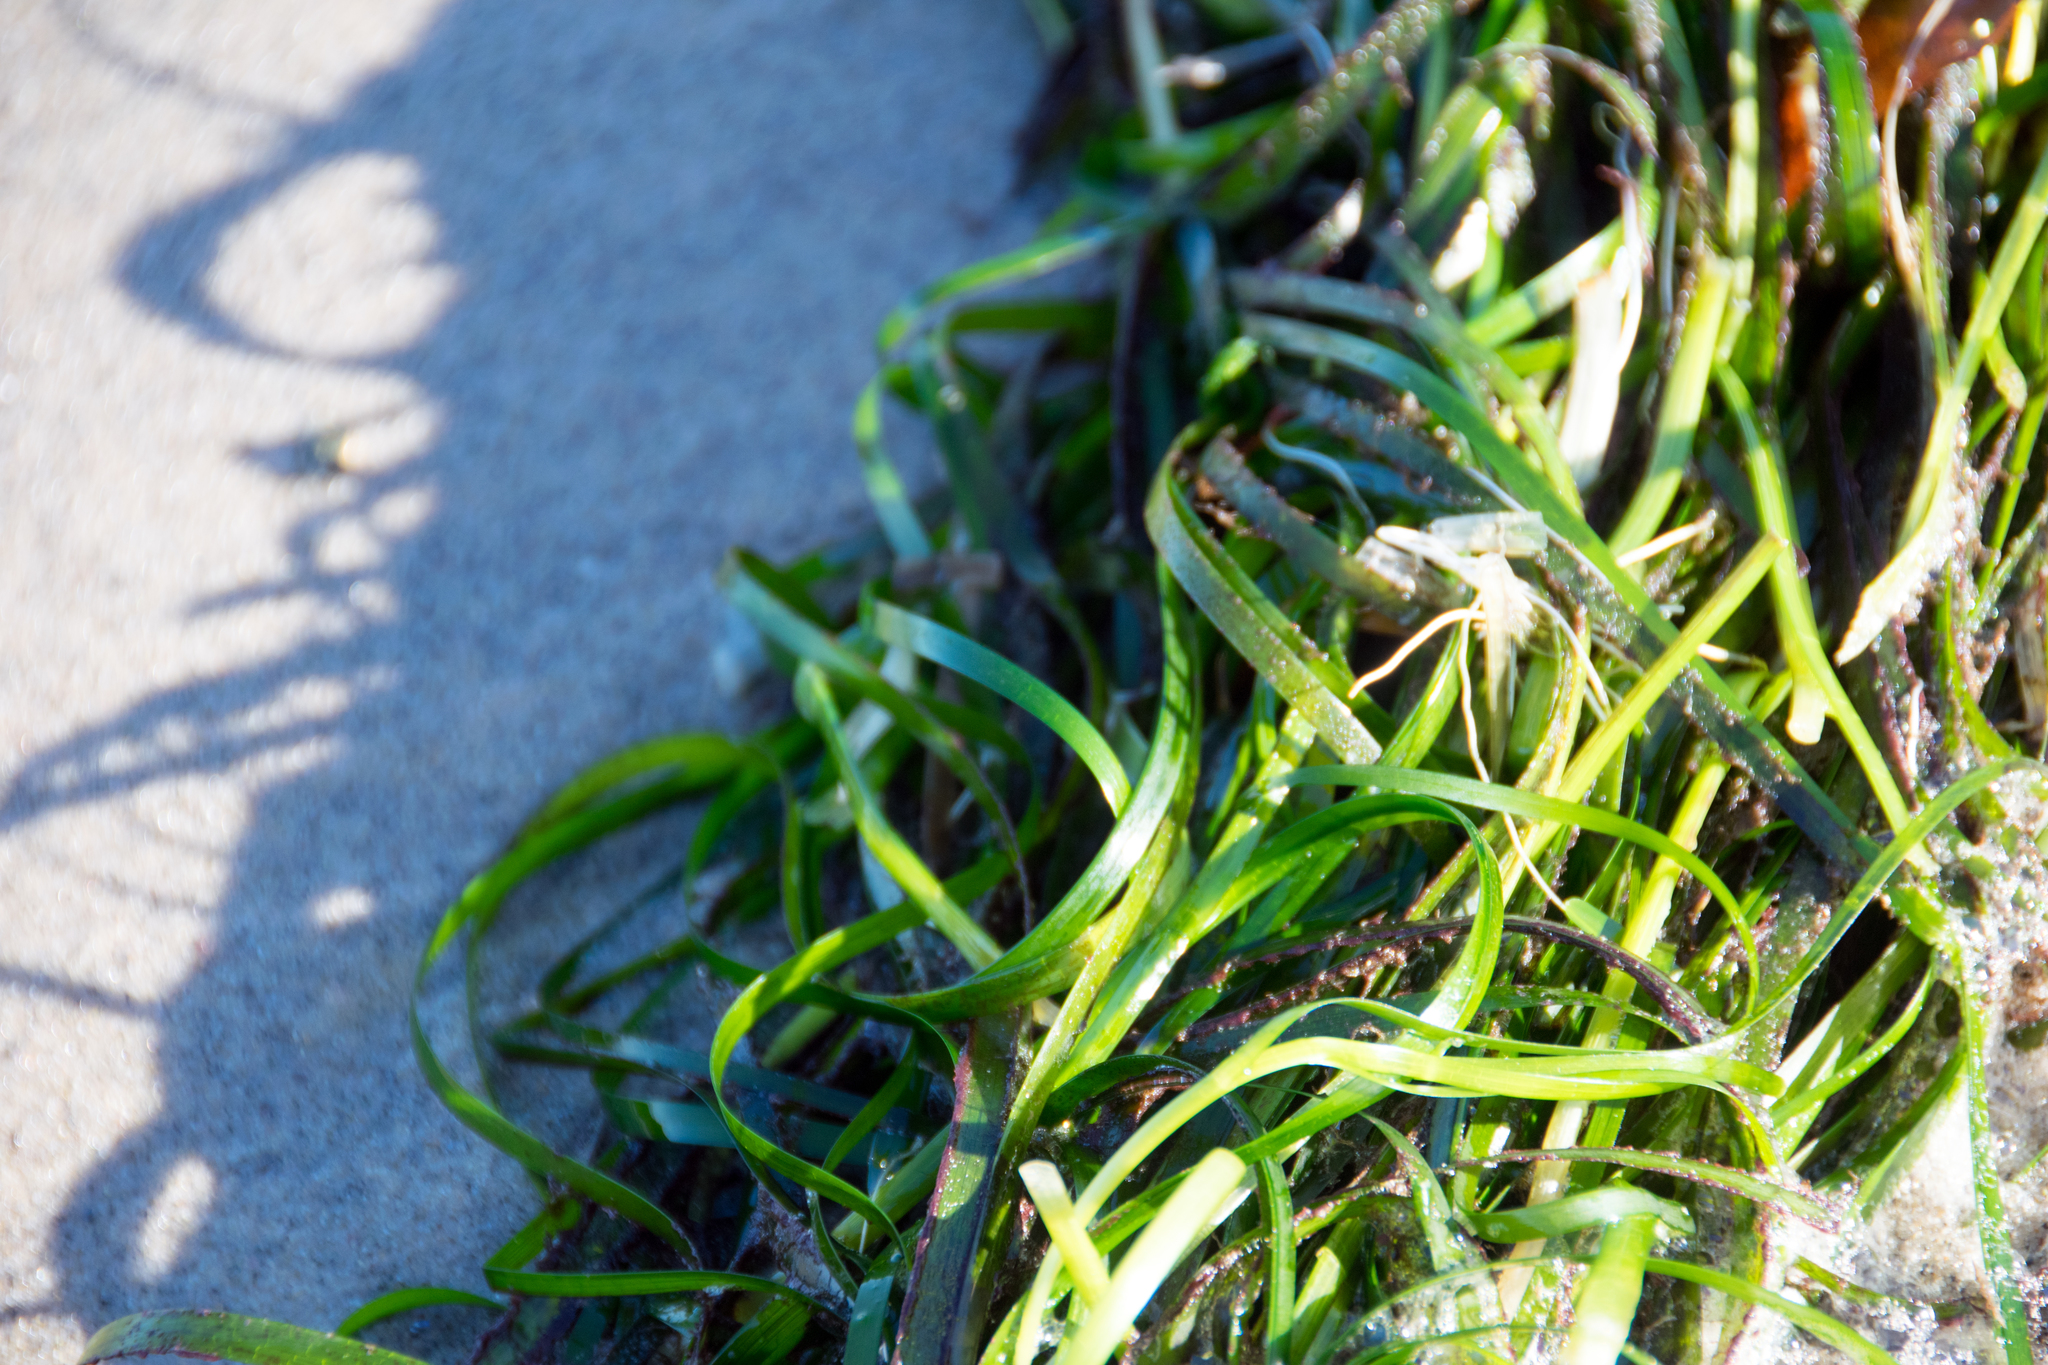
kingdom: Plantae
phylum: Tracheophyta
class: Liliopsida
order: Alismatales
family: Zosteraceae
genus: Zostera
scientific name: Zostera marina
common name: Eelgrass
